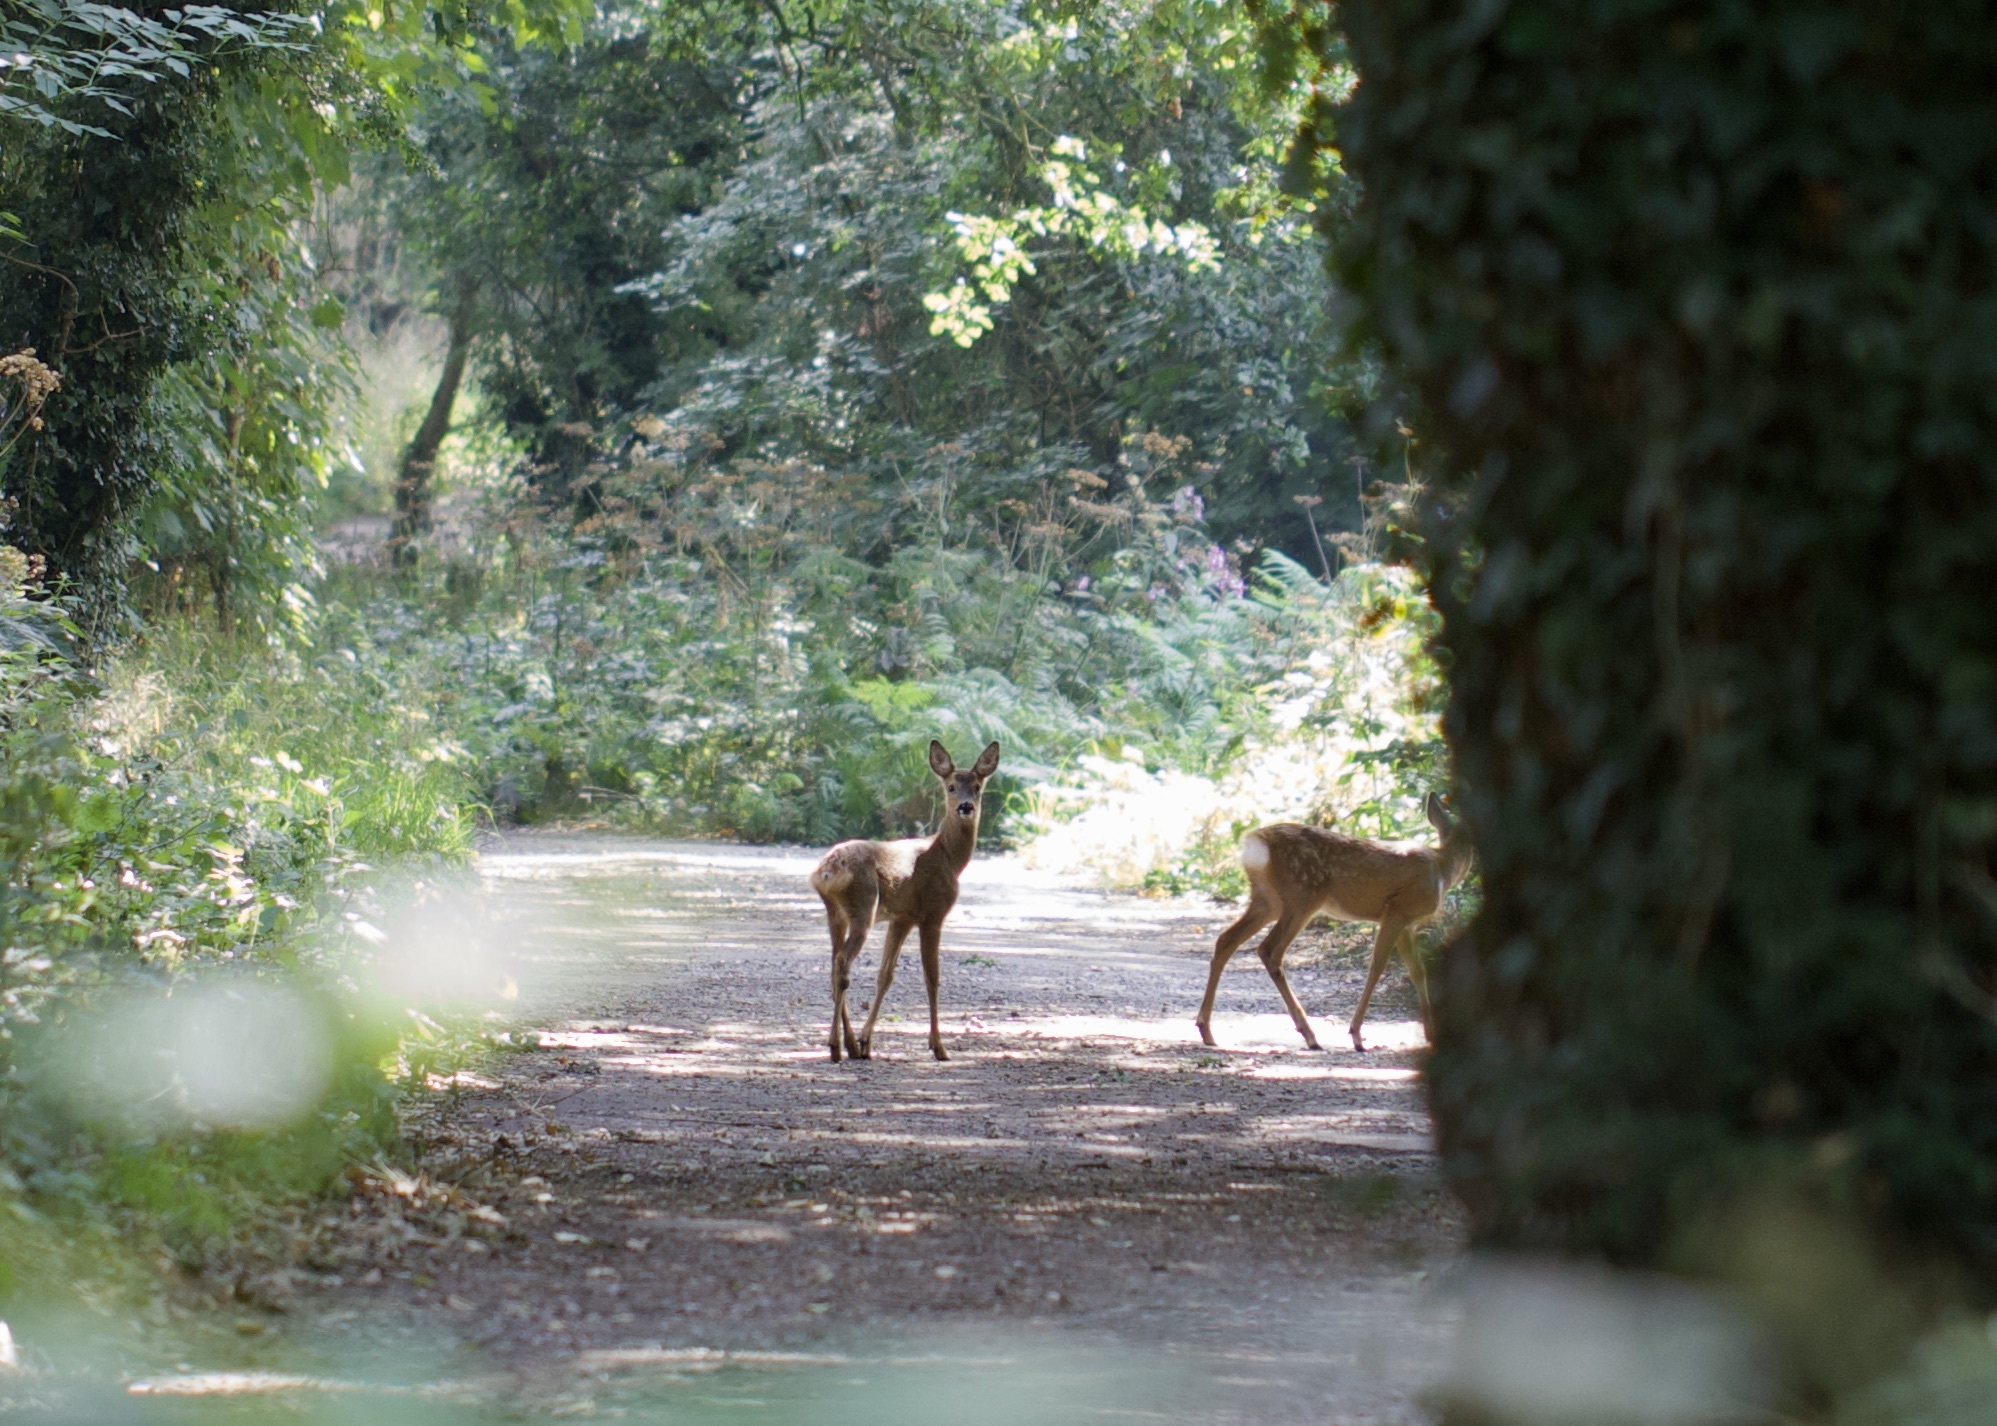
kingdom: Animalia
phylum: Chordata
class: Mammalia
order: Artiodactyla
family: Cervidae
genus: Capreolus
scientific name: Capreolus capreolus
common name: Western roe deer
